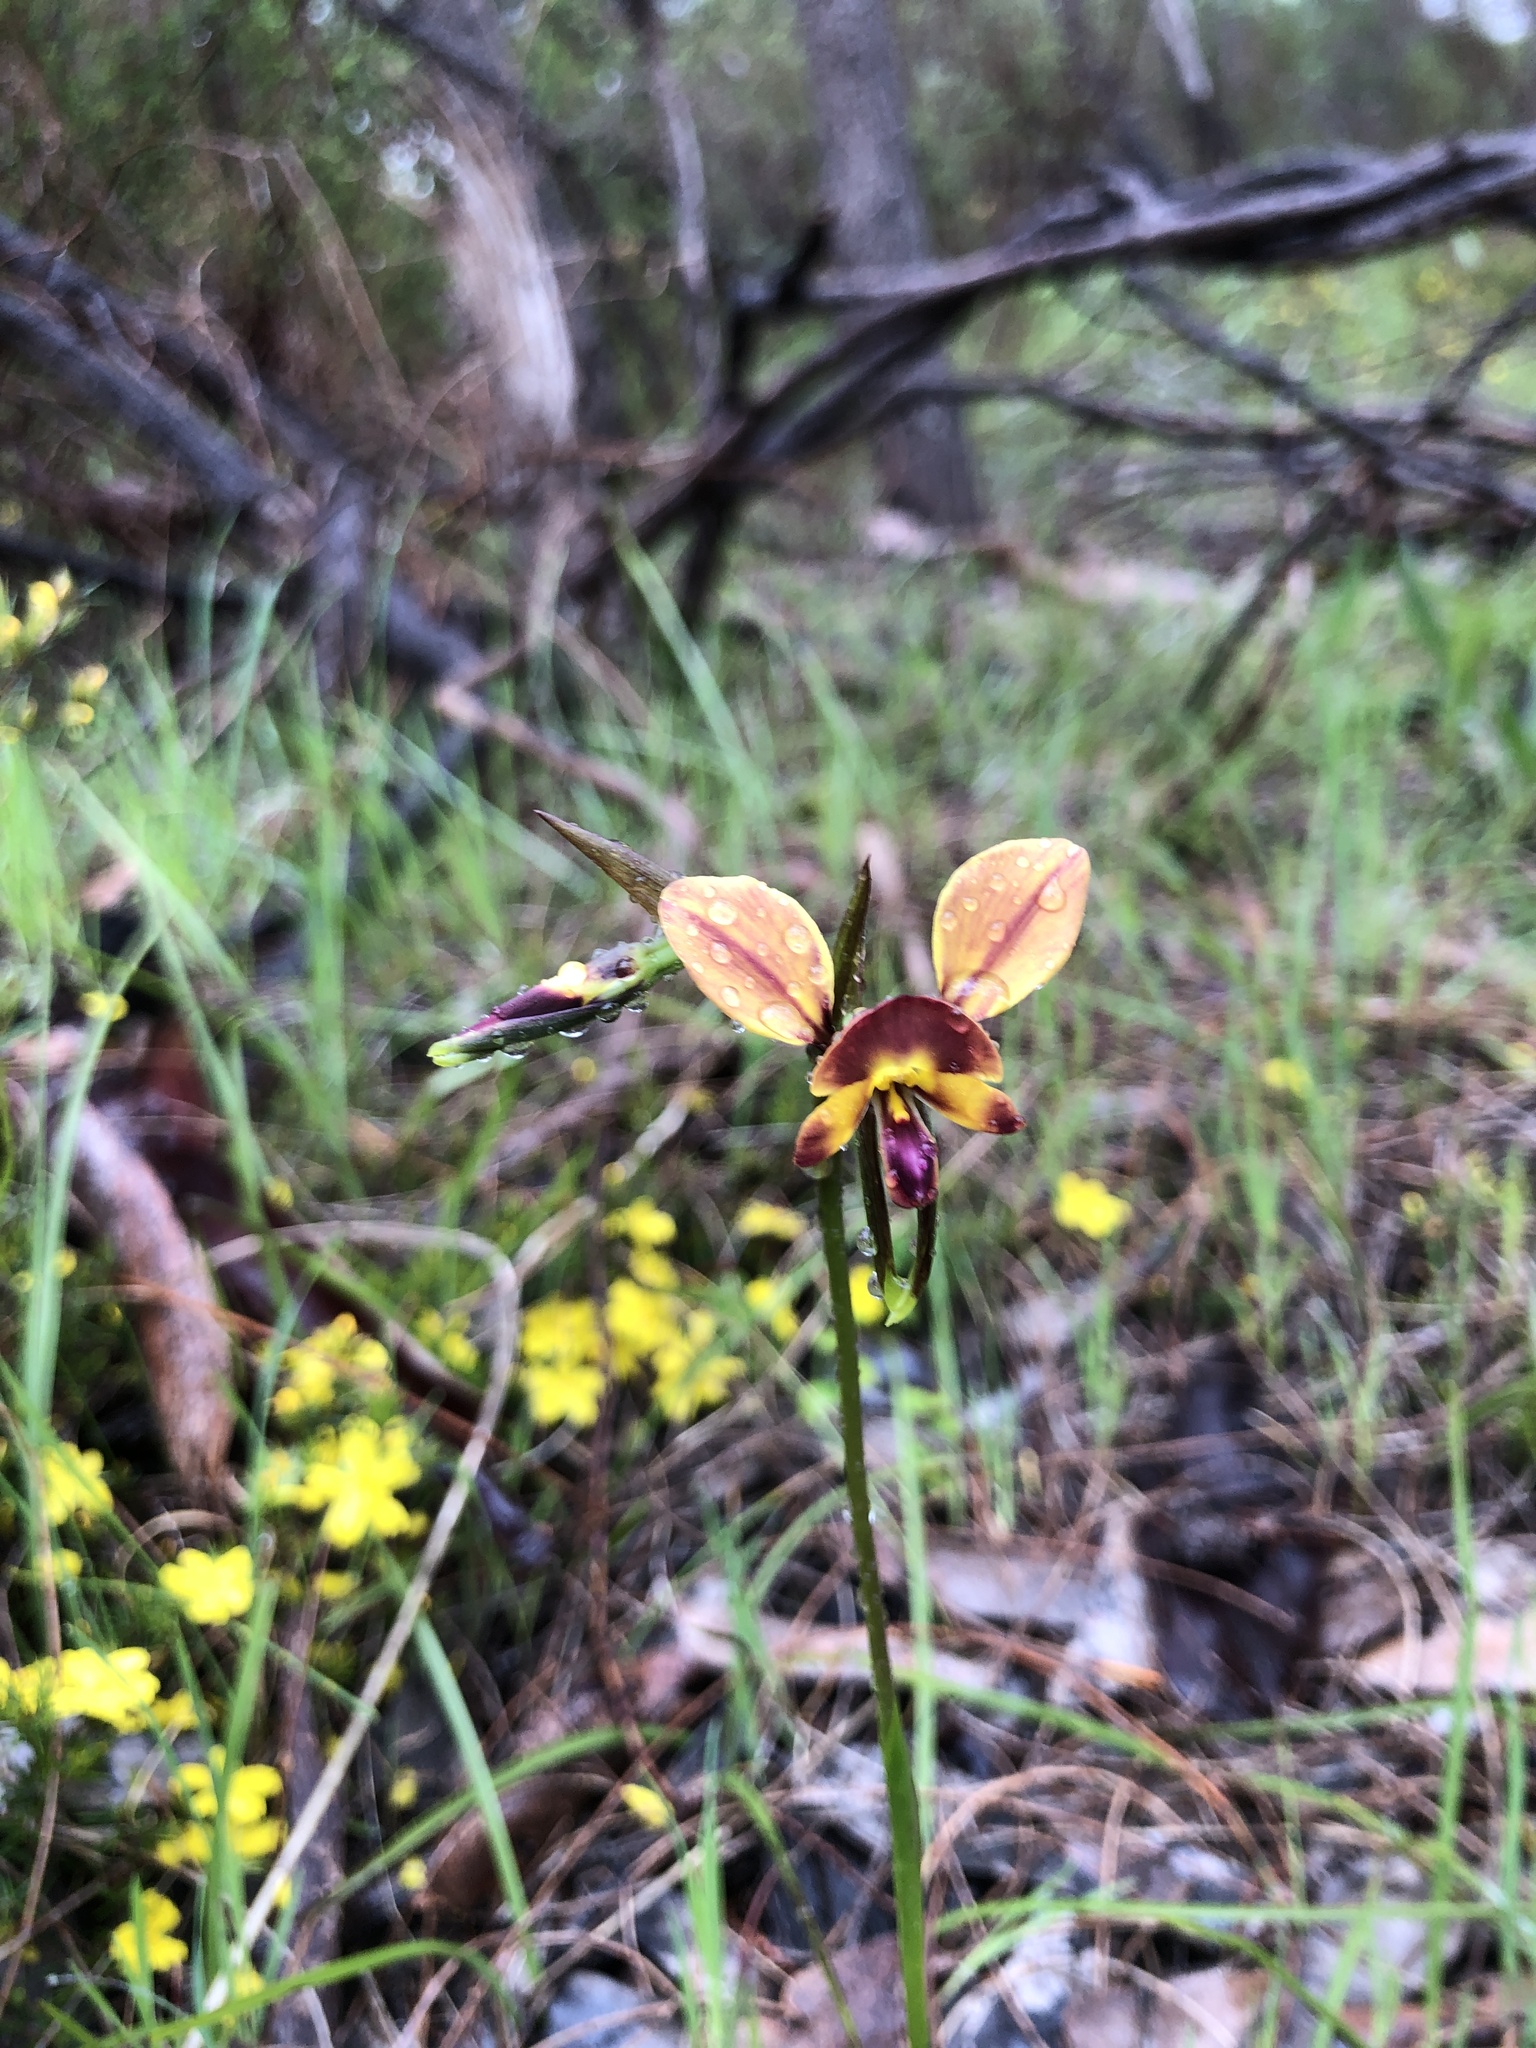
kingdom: Plantae
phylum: Tracheophyta
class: Liliopsida
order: Asparagales
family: Orchidaceae
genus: Diuris
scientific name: Diuris orientis
